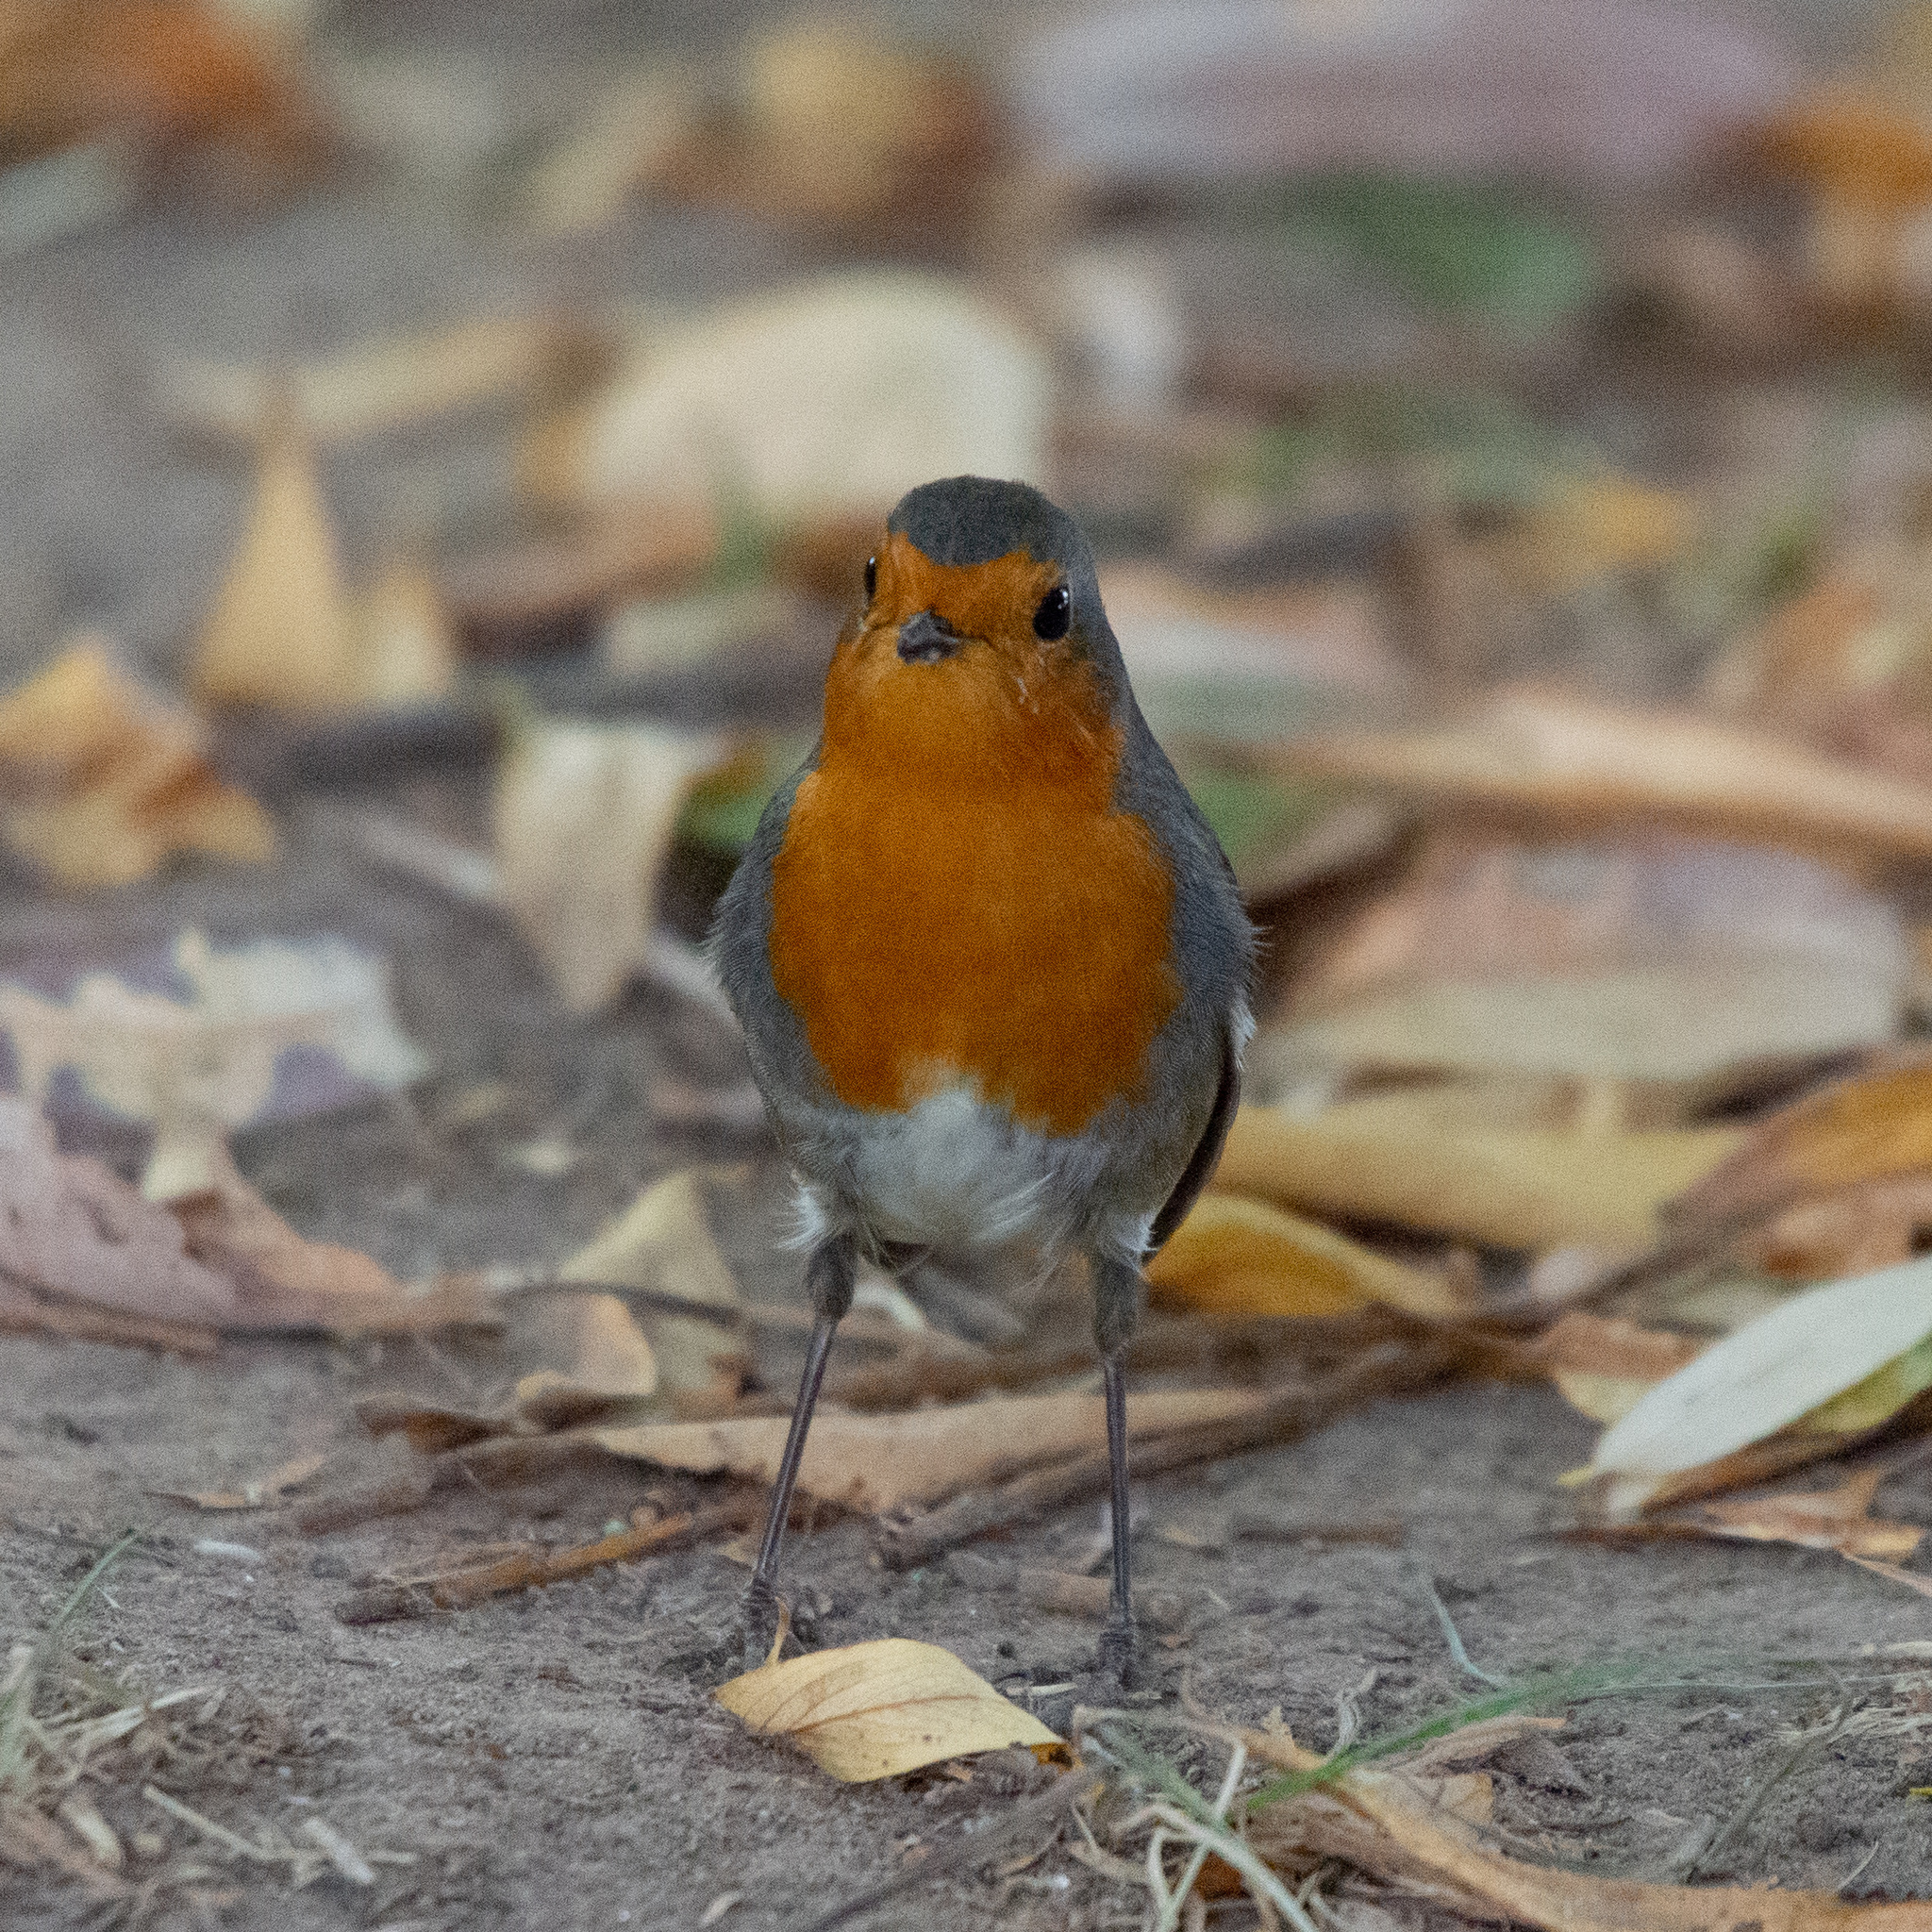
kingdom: Animalia
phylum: Chordata
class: Aves
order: Passeriformes
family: Muscicapidae
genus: Erithacus
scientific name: Erithacus rubecula
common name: European robin
